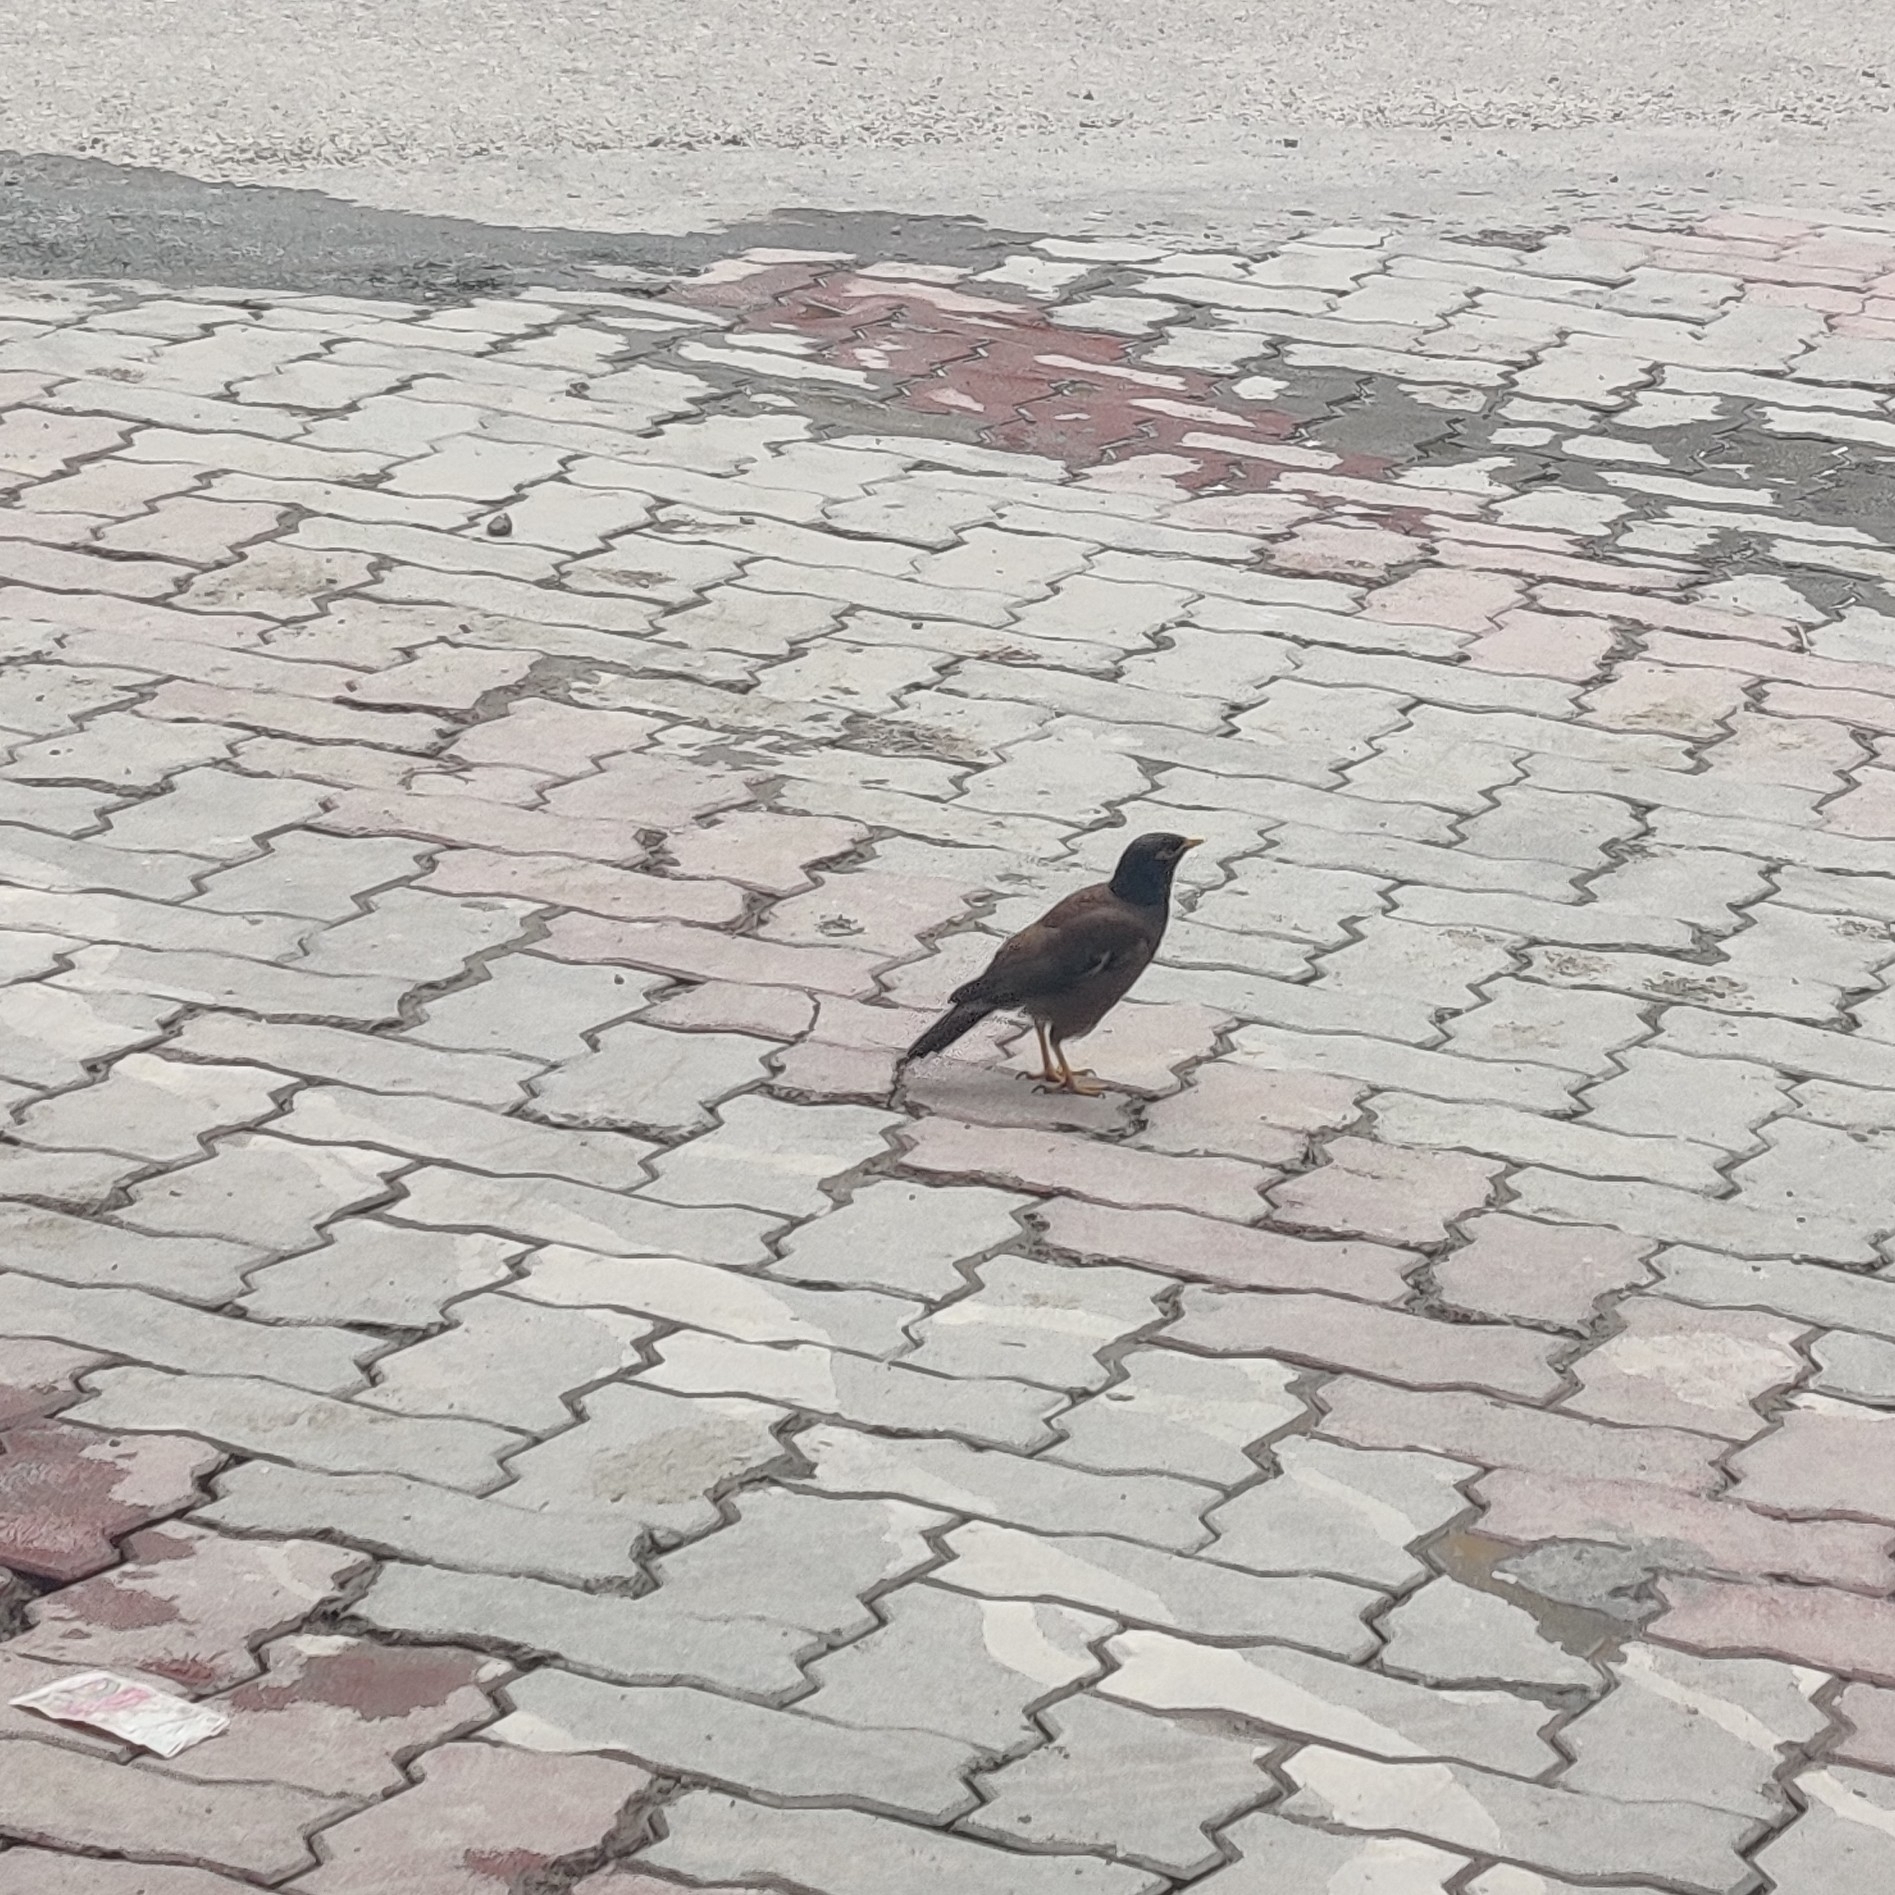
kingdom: Animalia
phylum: Chordata
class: Aves
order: Passeriformes
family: Sturnidae
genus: Acridotheres
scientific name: Acridotheres tristis
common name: Common myna
